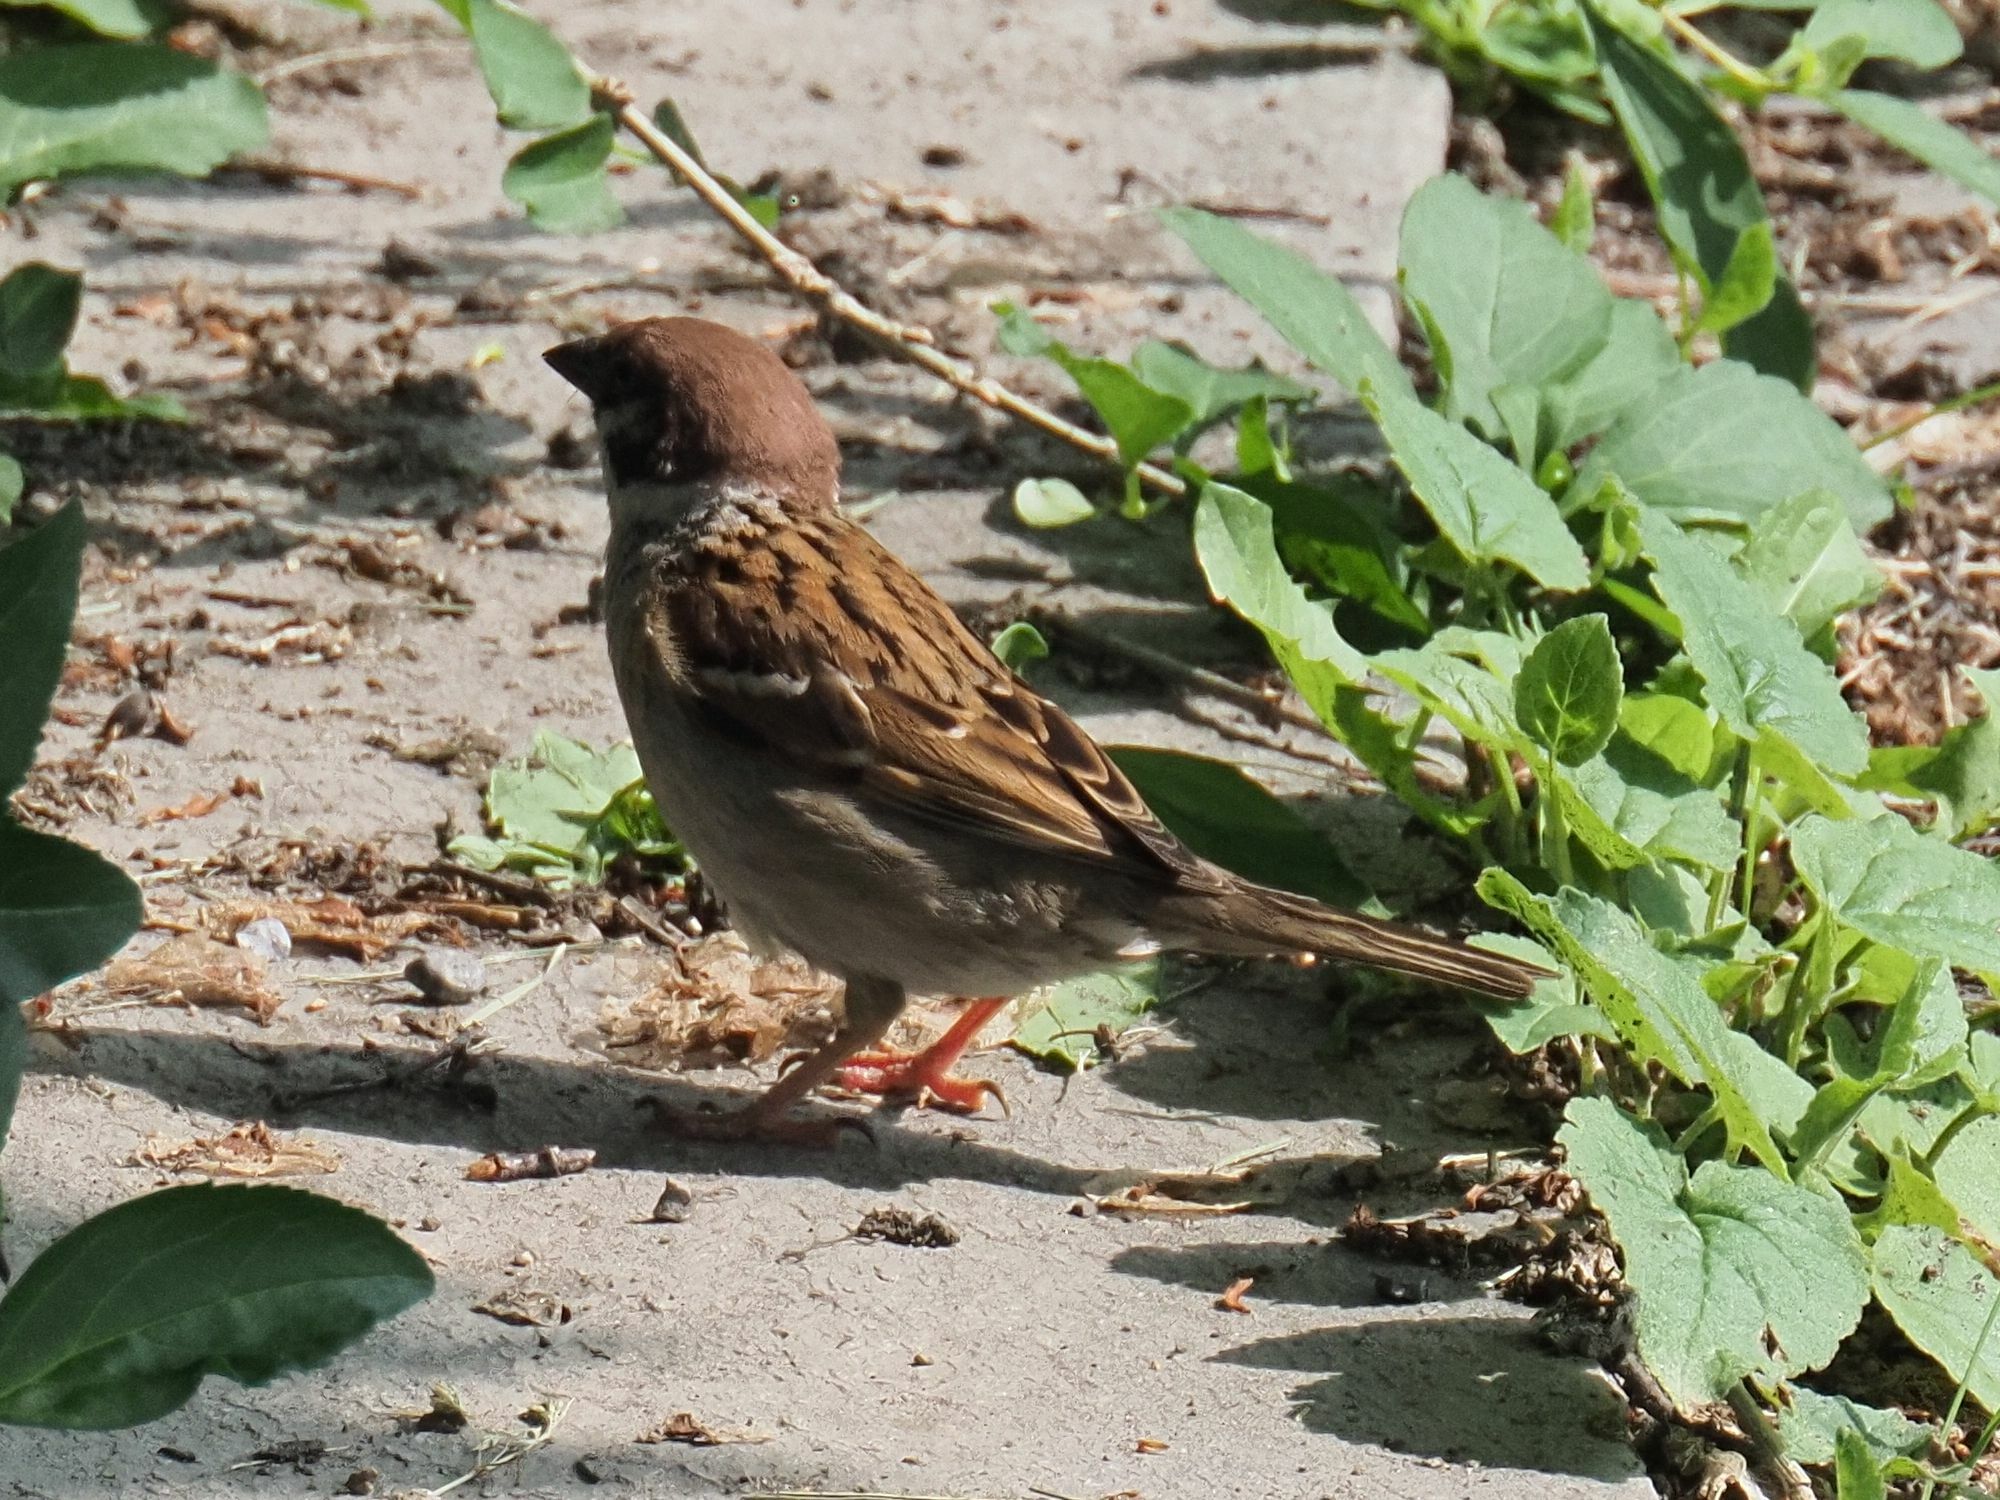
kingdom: Animalia
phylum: Chordata
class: Aves
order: Passeriformes
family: Passeridae
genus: Passer
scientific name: Passer montanus
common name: Eurasian tree sparrow
